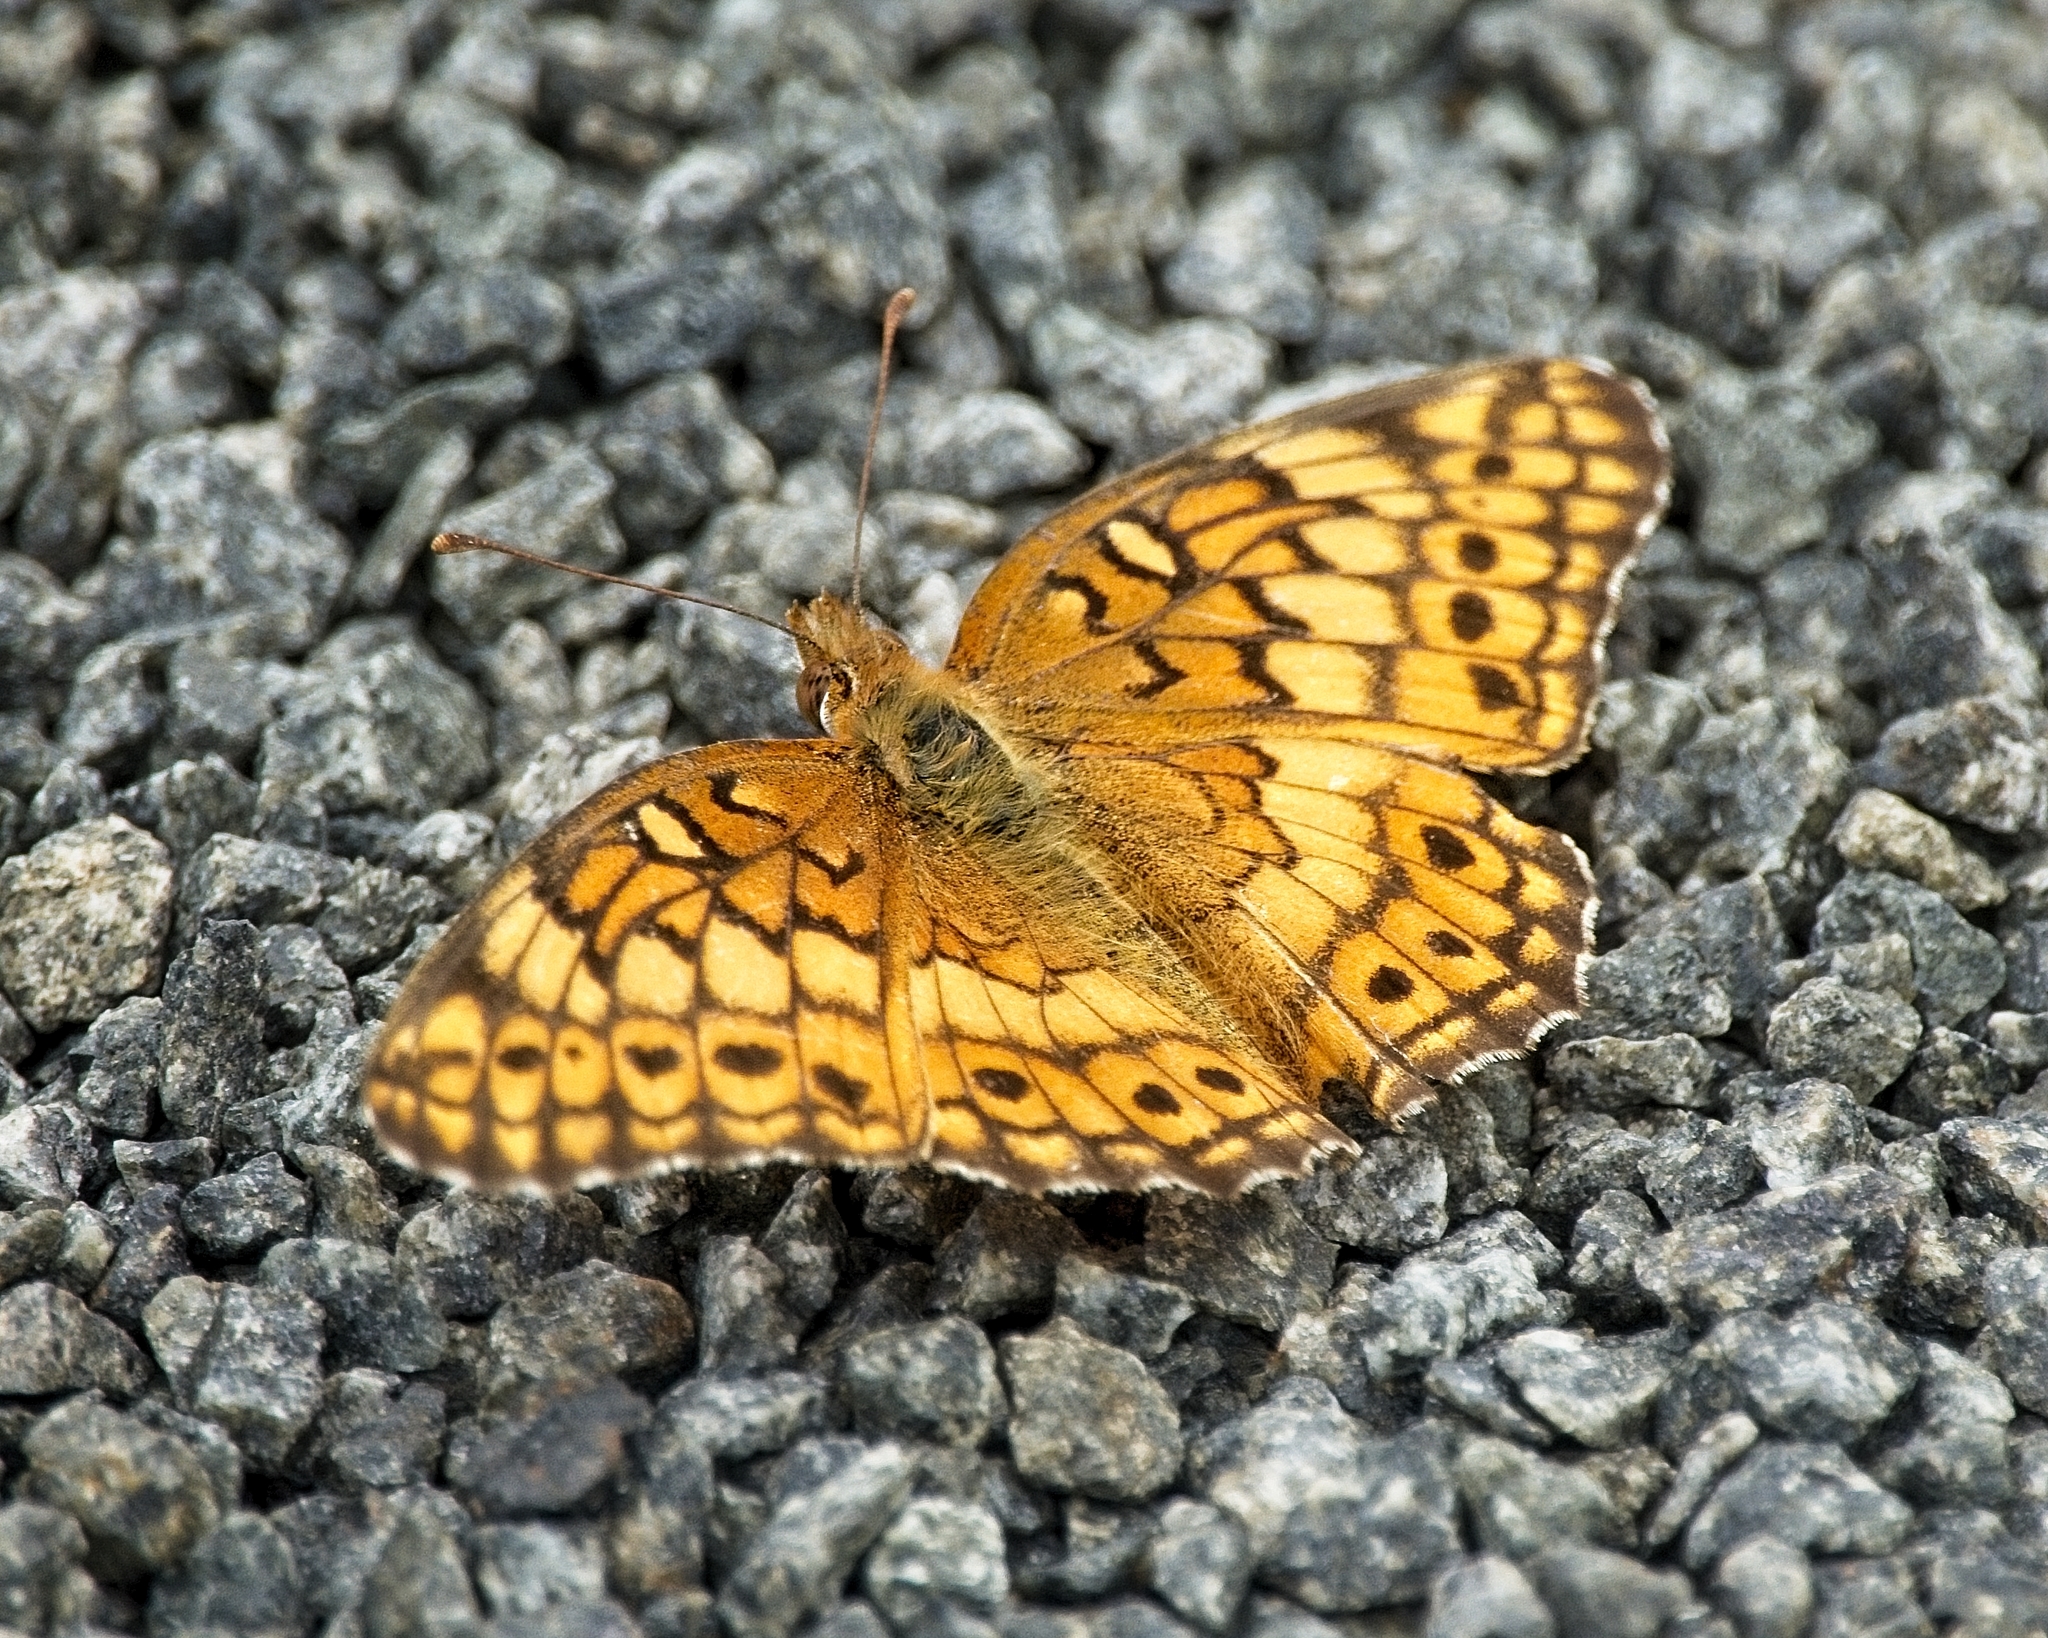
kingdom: Animalia
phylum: Arthropoda
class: Insecta
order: Lepidoptera
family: Nymphalidae
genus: Euptoieta
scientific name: Euptoieta claudia
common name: Variegated fritillary
